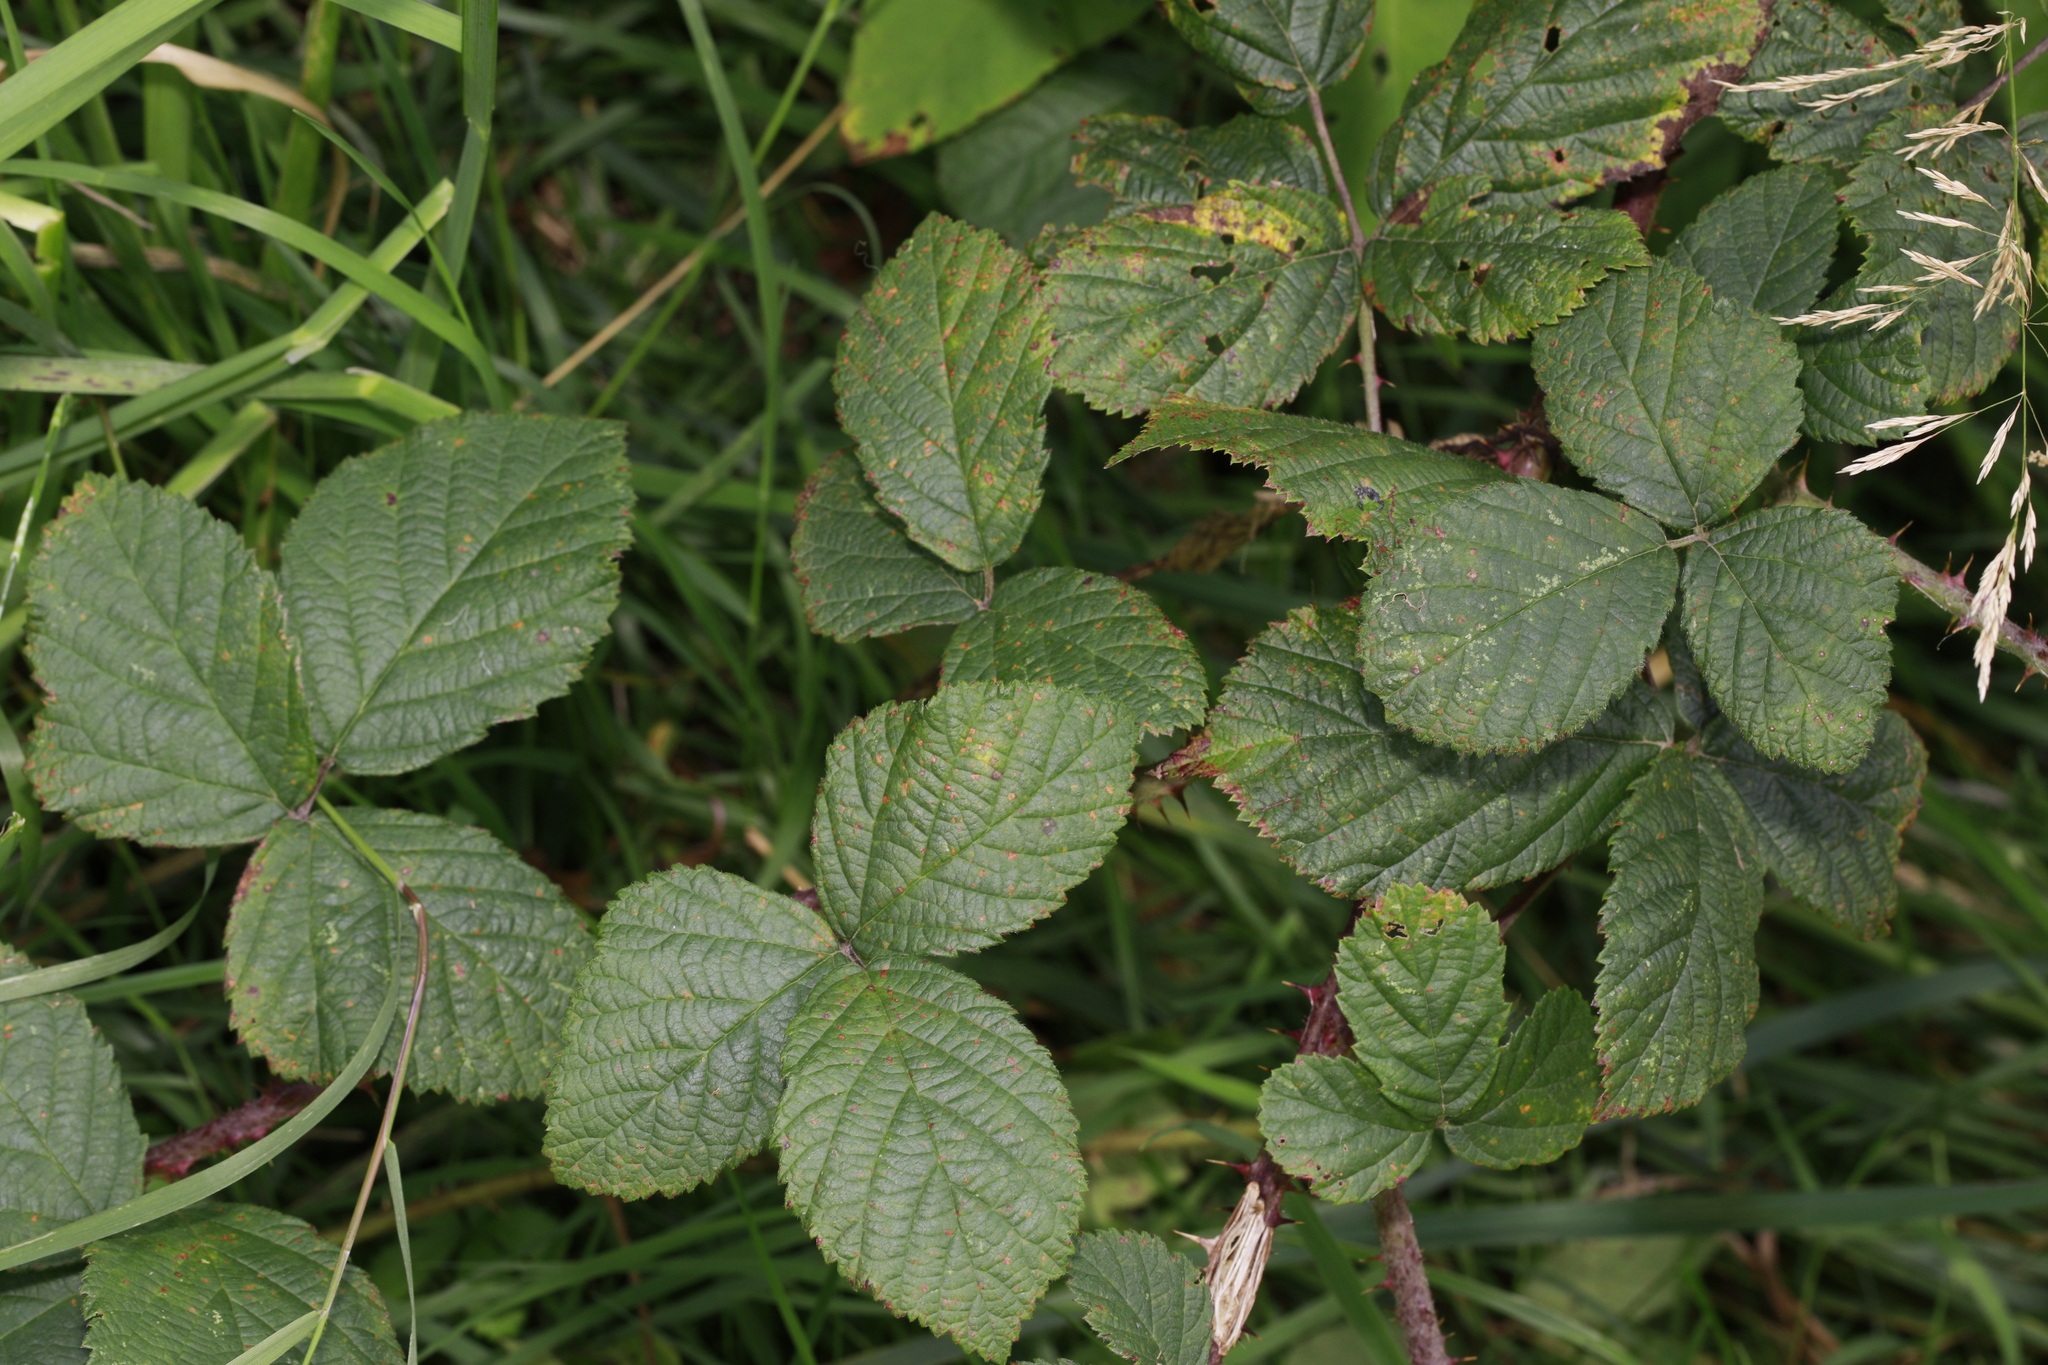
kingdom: Plantae
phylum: Tracheophyta
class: Magnoliopsida
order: Rosales
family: Rosaceae
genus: Rubus
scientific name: Rubus horrefactus
